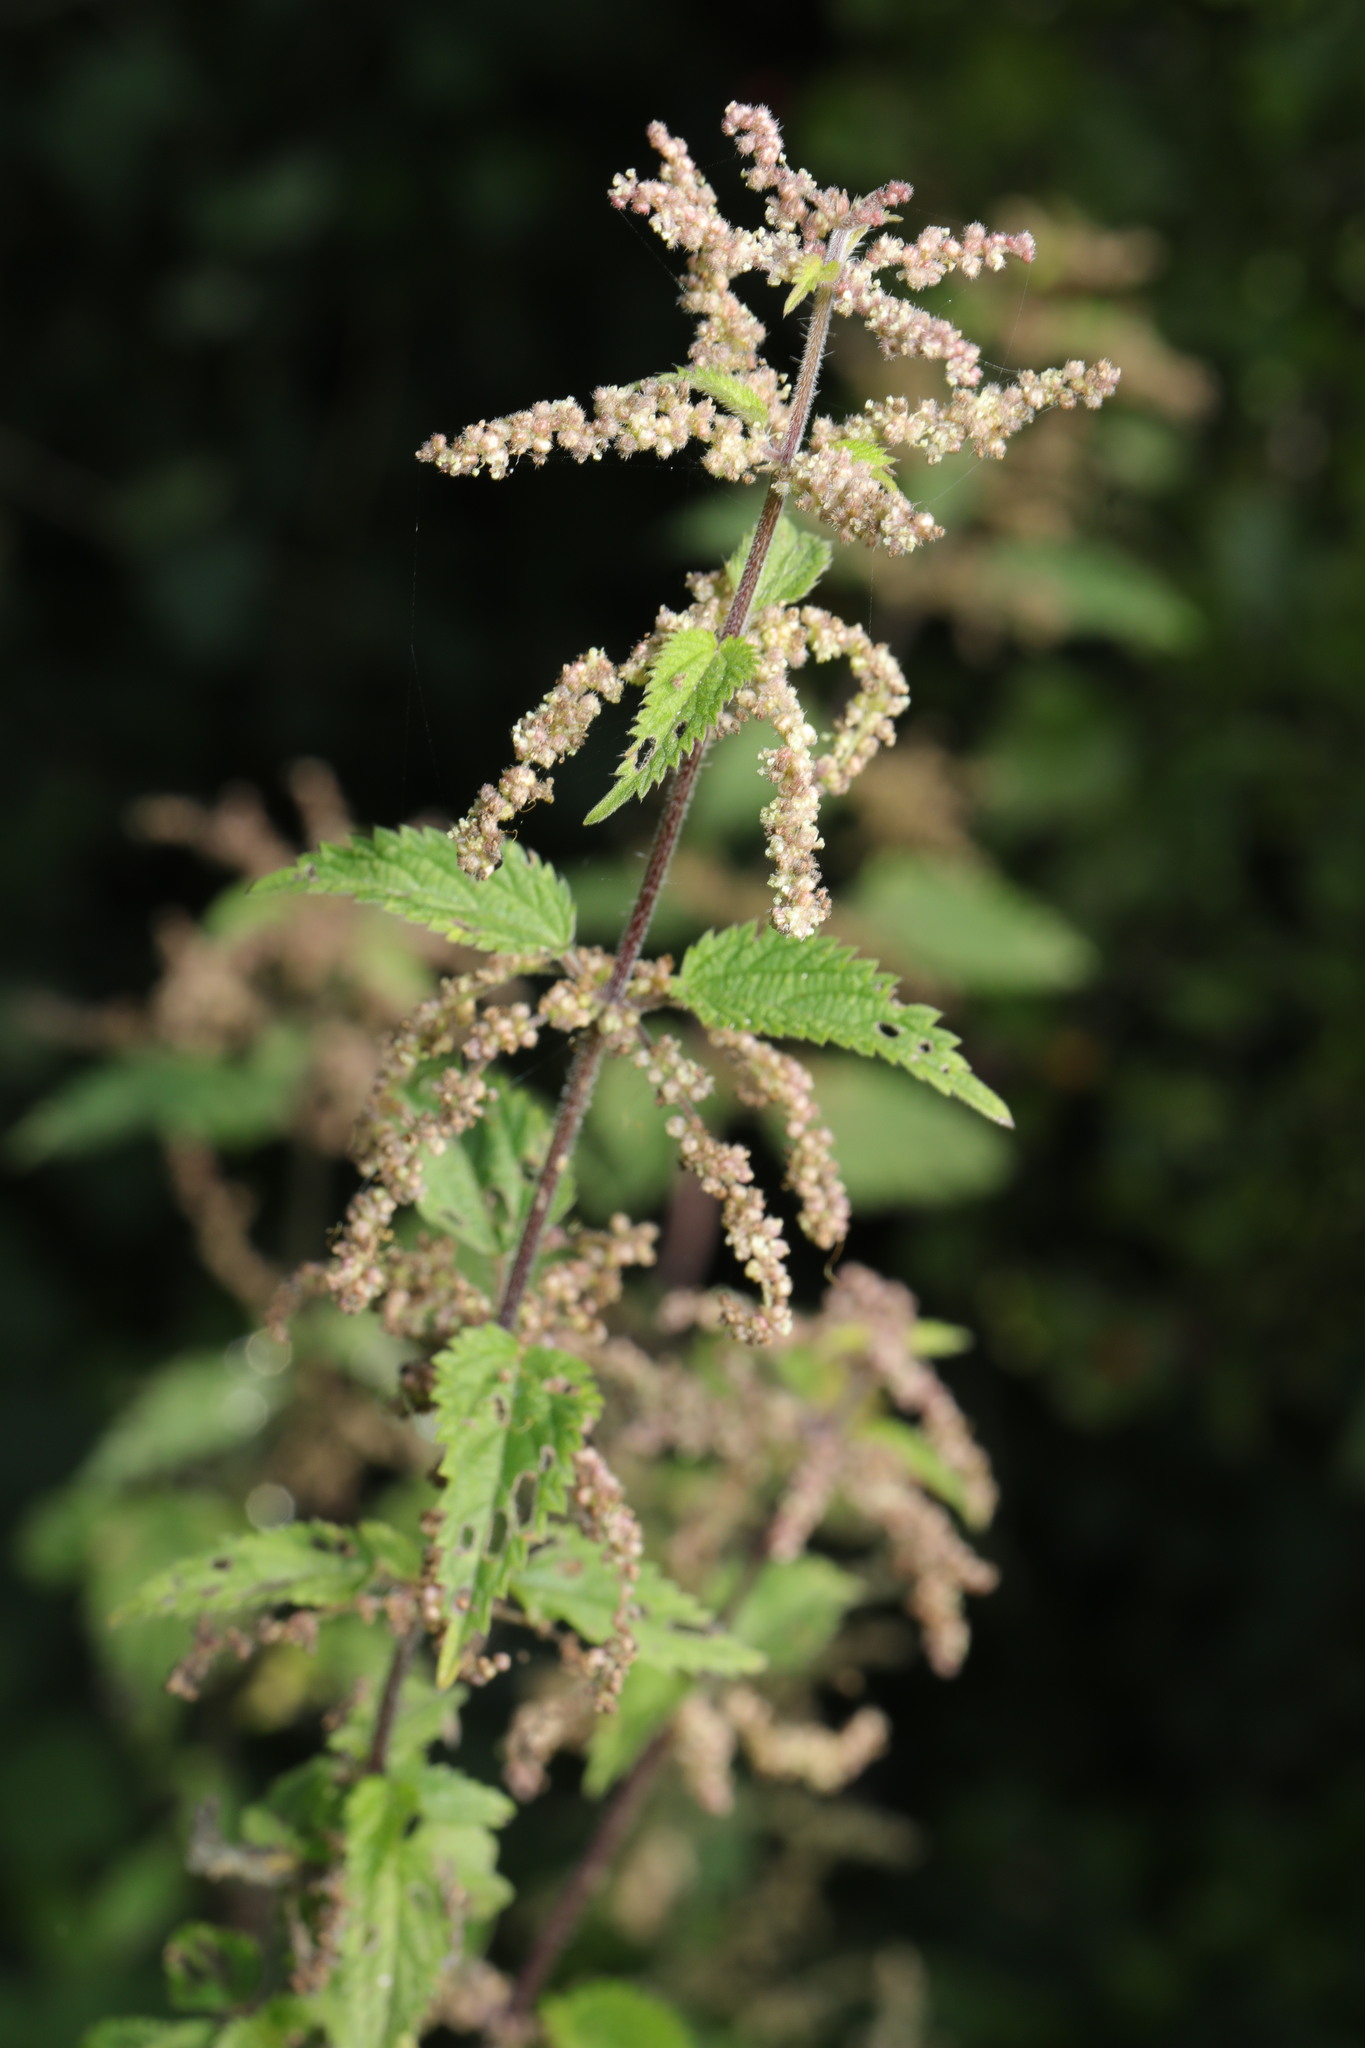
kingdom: Plantae
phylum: Tracheophyta
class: Magnoliopsida
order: Rosales
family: Urticaceae
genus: Urtica
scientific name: Urtica dioica
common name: Common nettle
